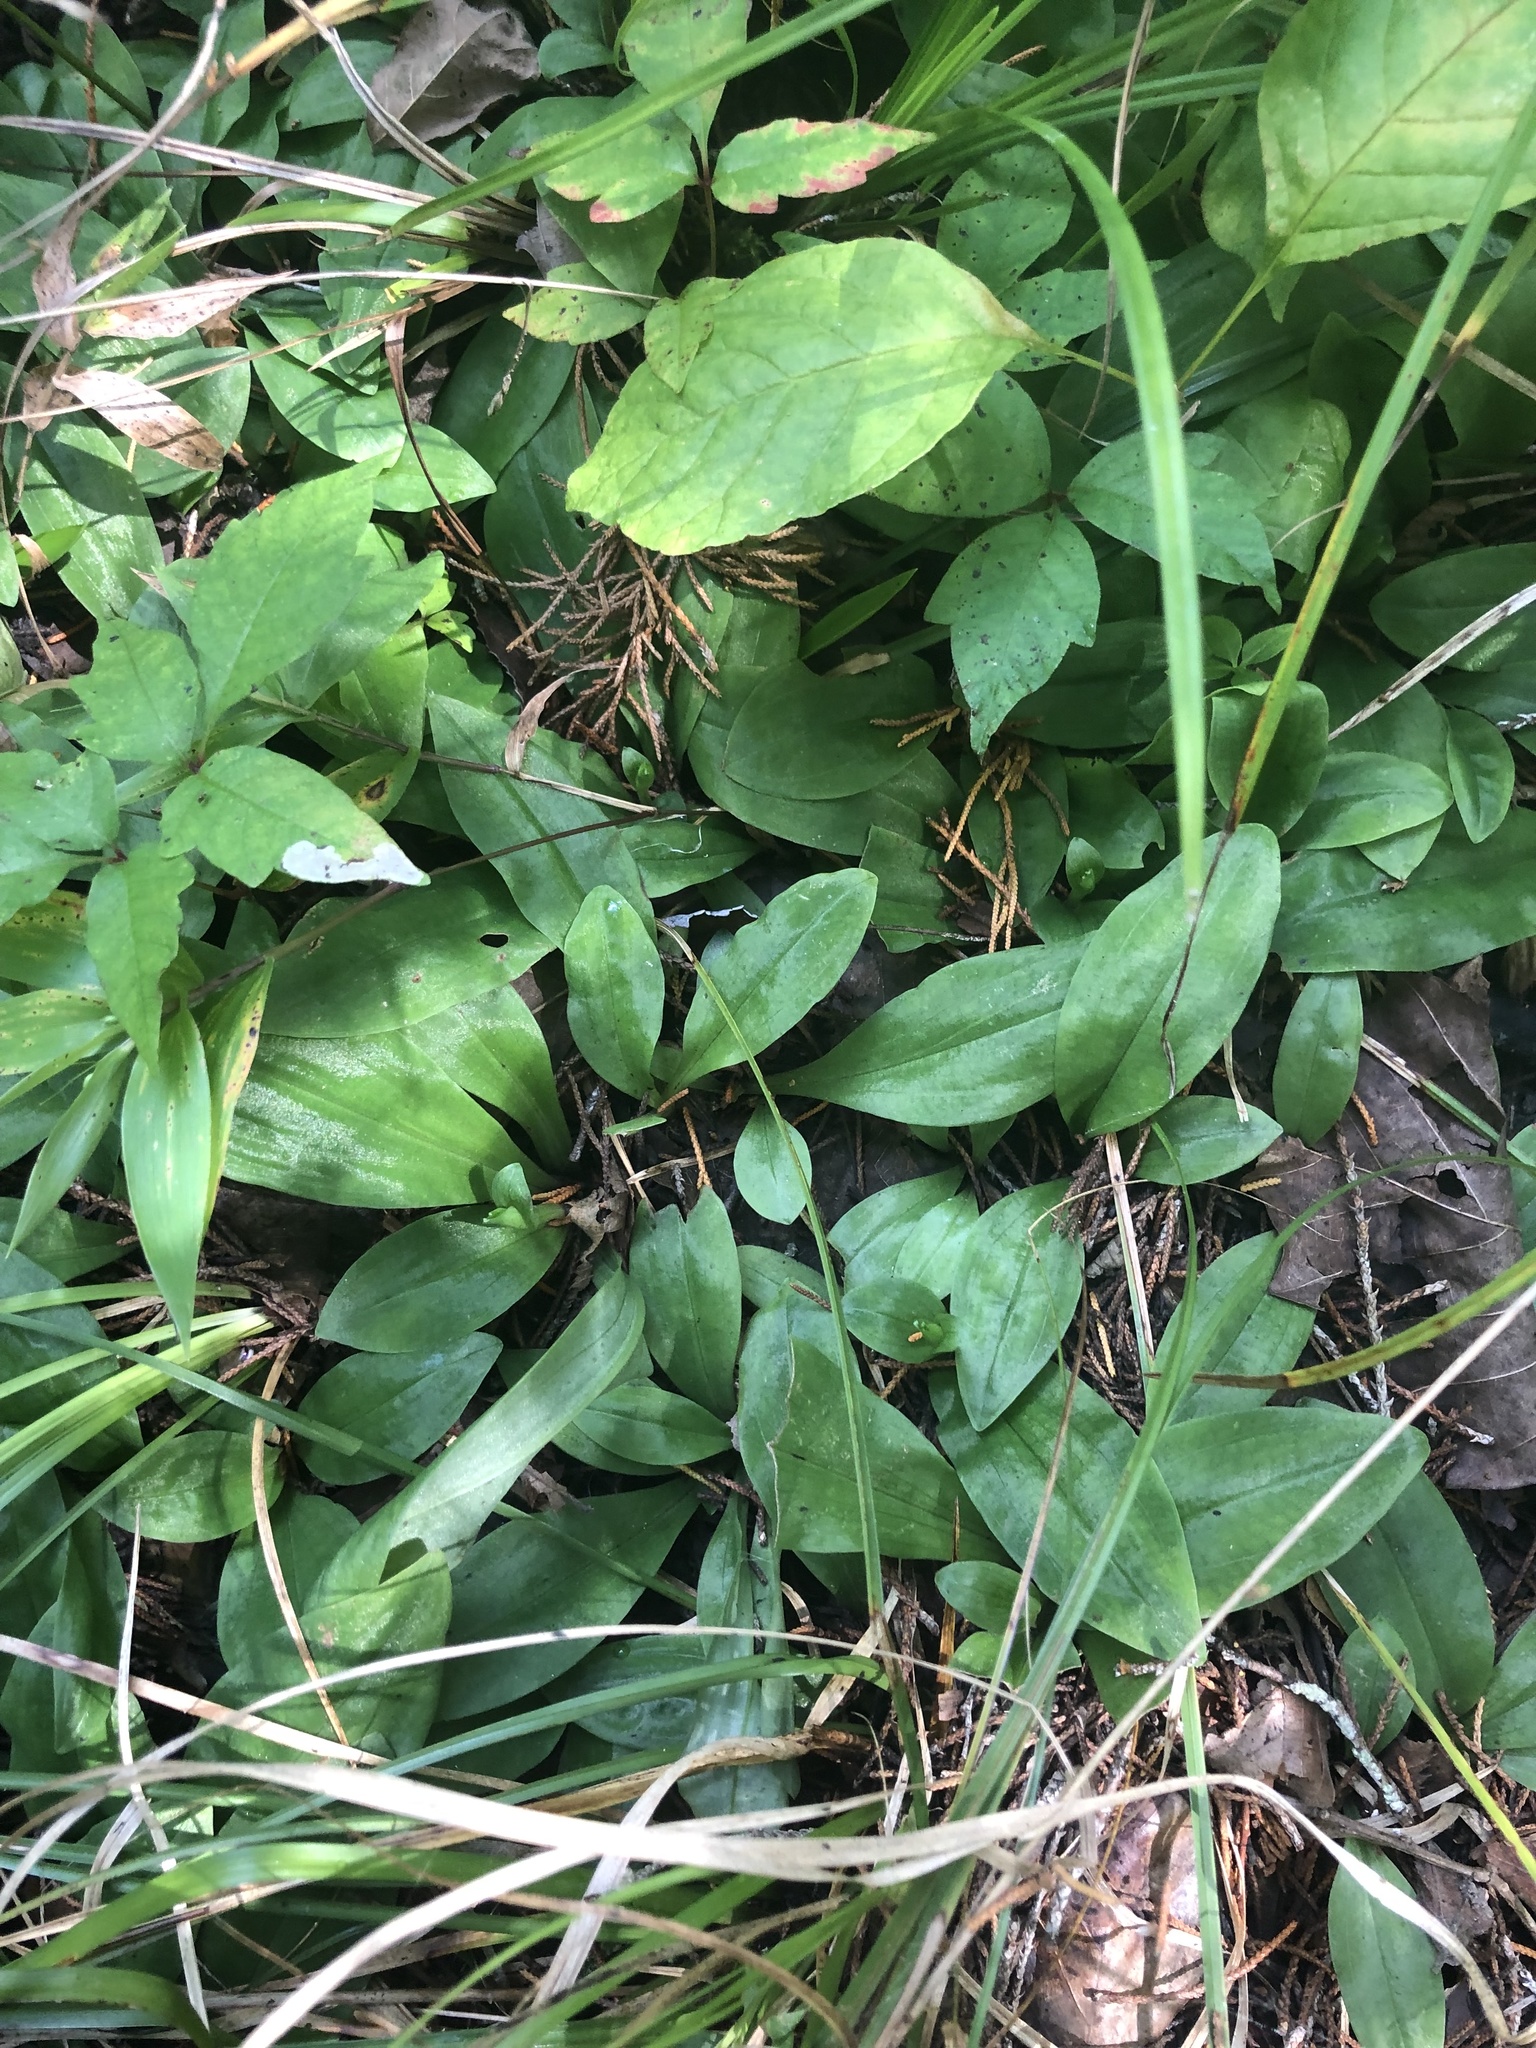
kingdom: Plantae
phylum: Tracheophyta
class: Liliopsida
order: Asparagales
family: Orchidaceae
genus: Ponthieva
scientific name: Ponthieva racemosa
